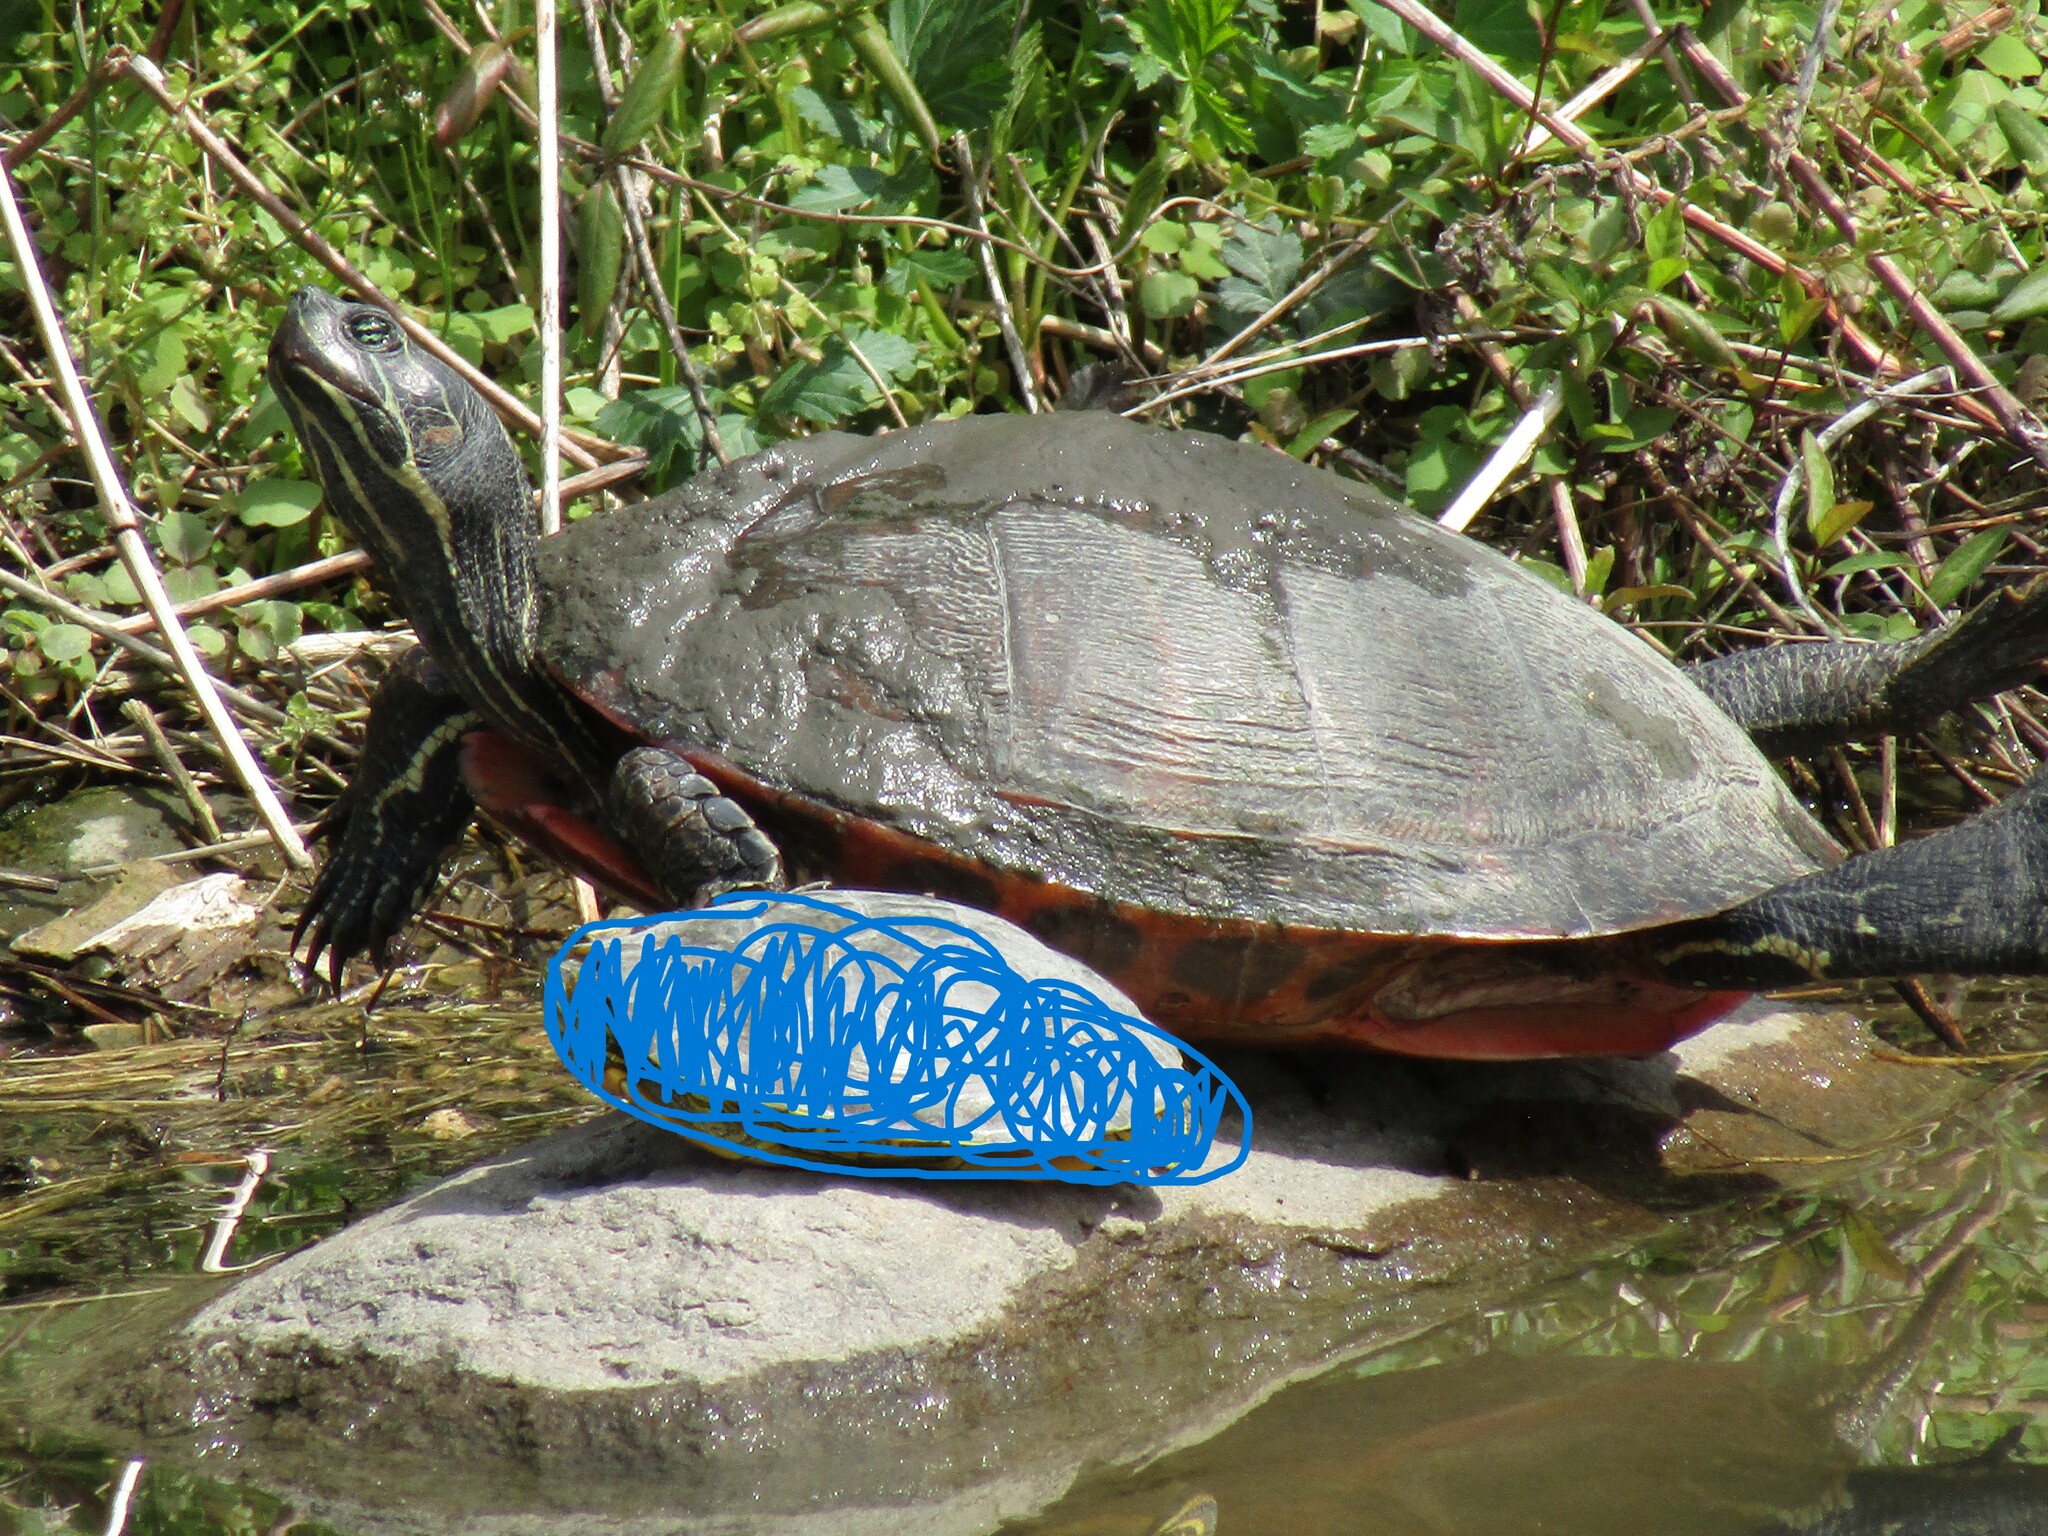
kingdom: Animalia
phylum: Chordata
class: Testudines
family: Emydidae
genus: Pseudemys
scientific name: Pseudemys rubriventris
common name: American red-bellied turtle
